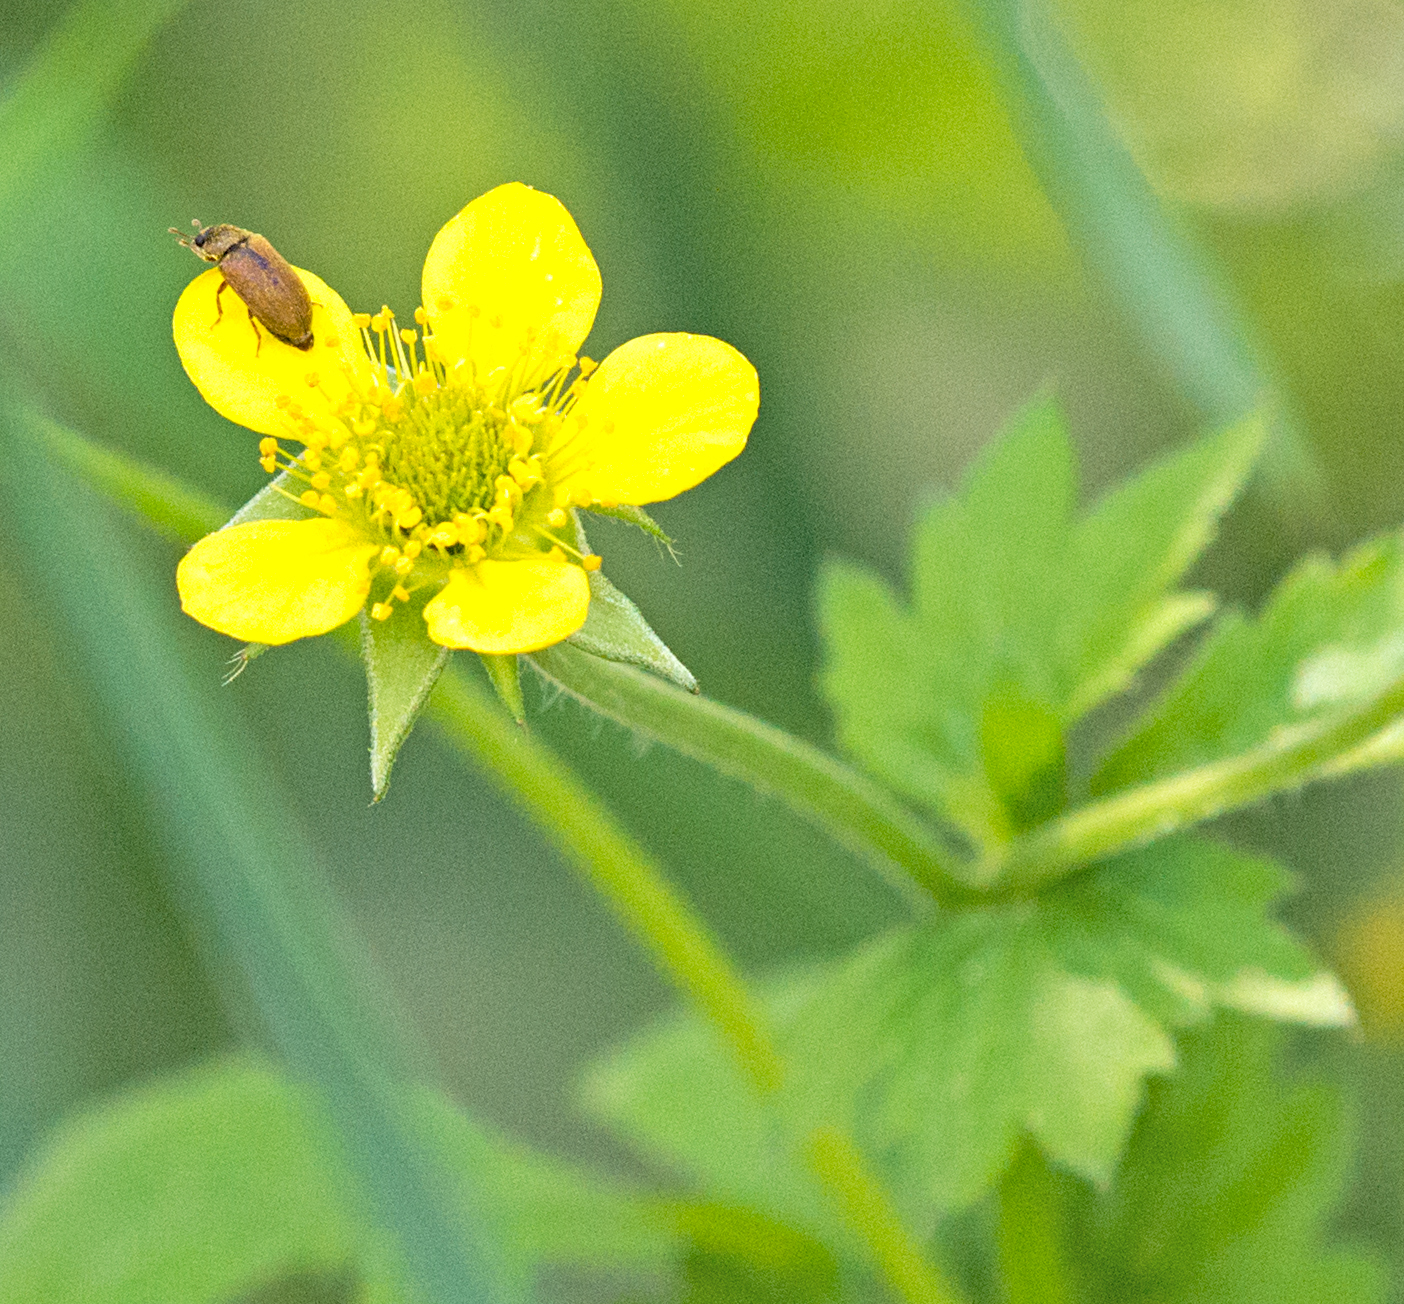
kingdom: Animalia
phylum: Arthropoda
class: Insecta
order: Coleoptera
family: Byturidae
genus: Byturus
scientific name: Byturus ochraceus
